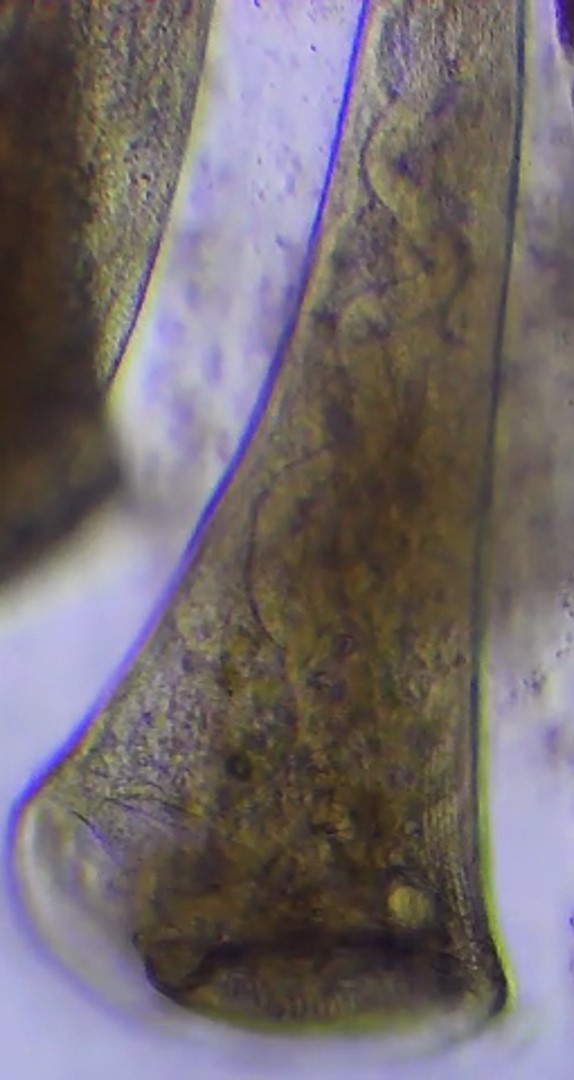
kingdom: Chromista
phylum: Ciliophora
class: Heterotrichea
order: Heterotrichida
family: Stentoridae
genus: Stentor
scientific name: Stentor roeselii
